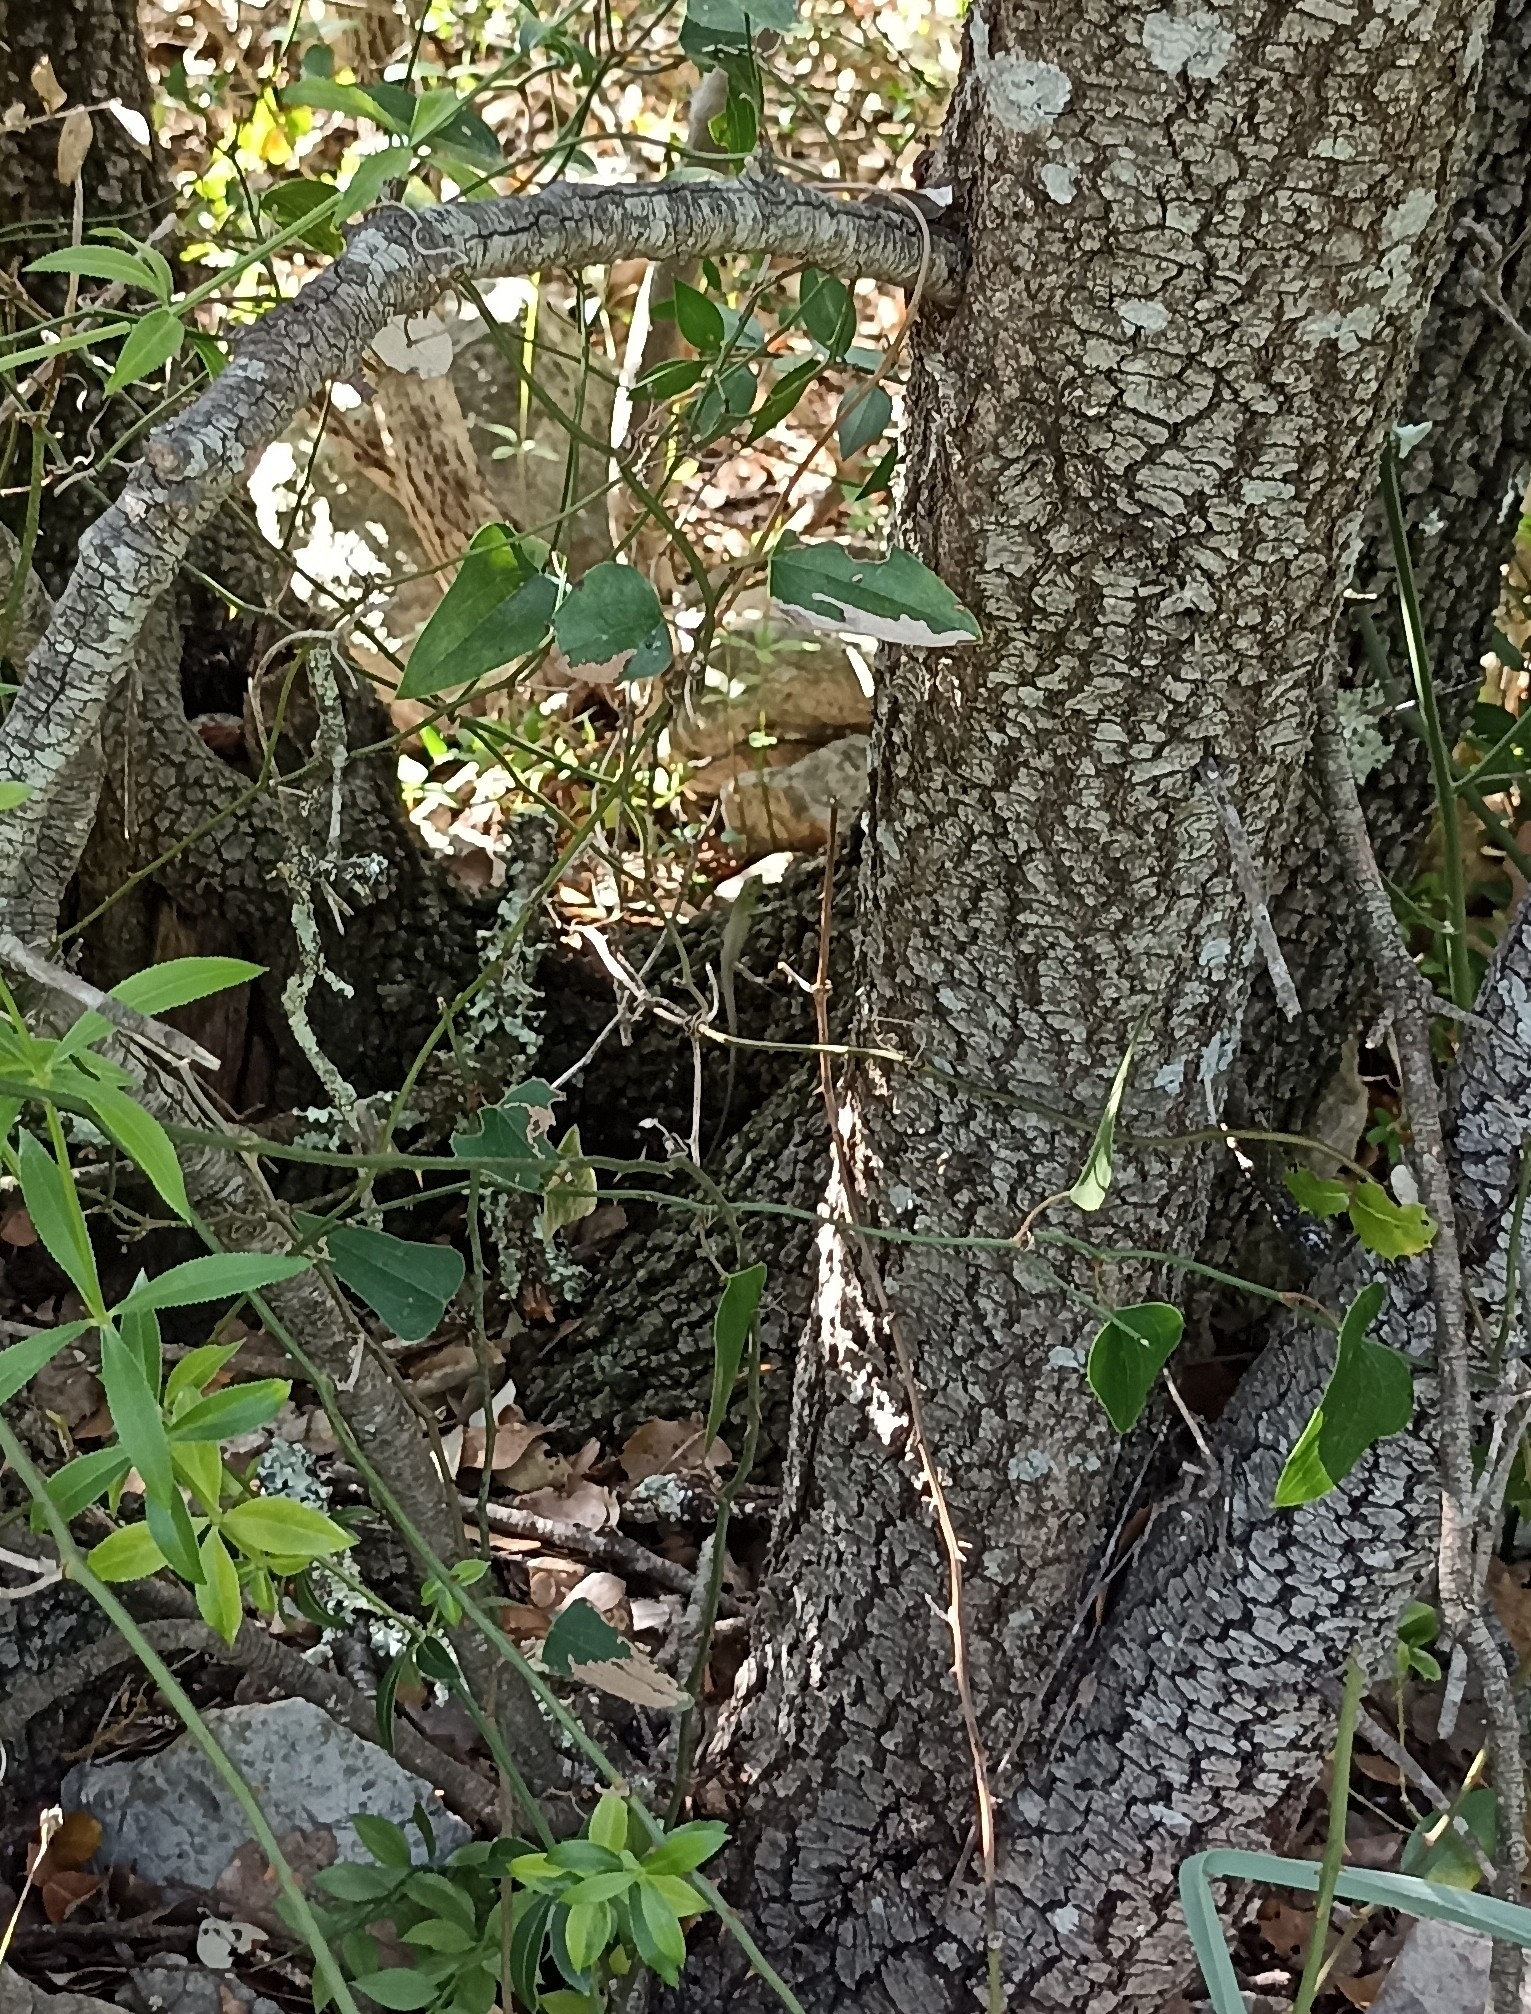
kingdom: Animalia
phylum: Chordata
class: Squamata
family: Lacertidae
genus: Lacerta
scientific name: Lacerta bilineata
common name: Western green lizard
